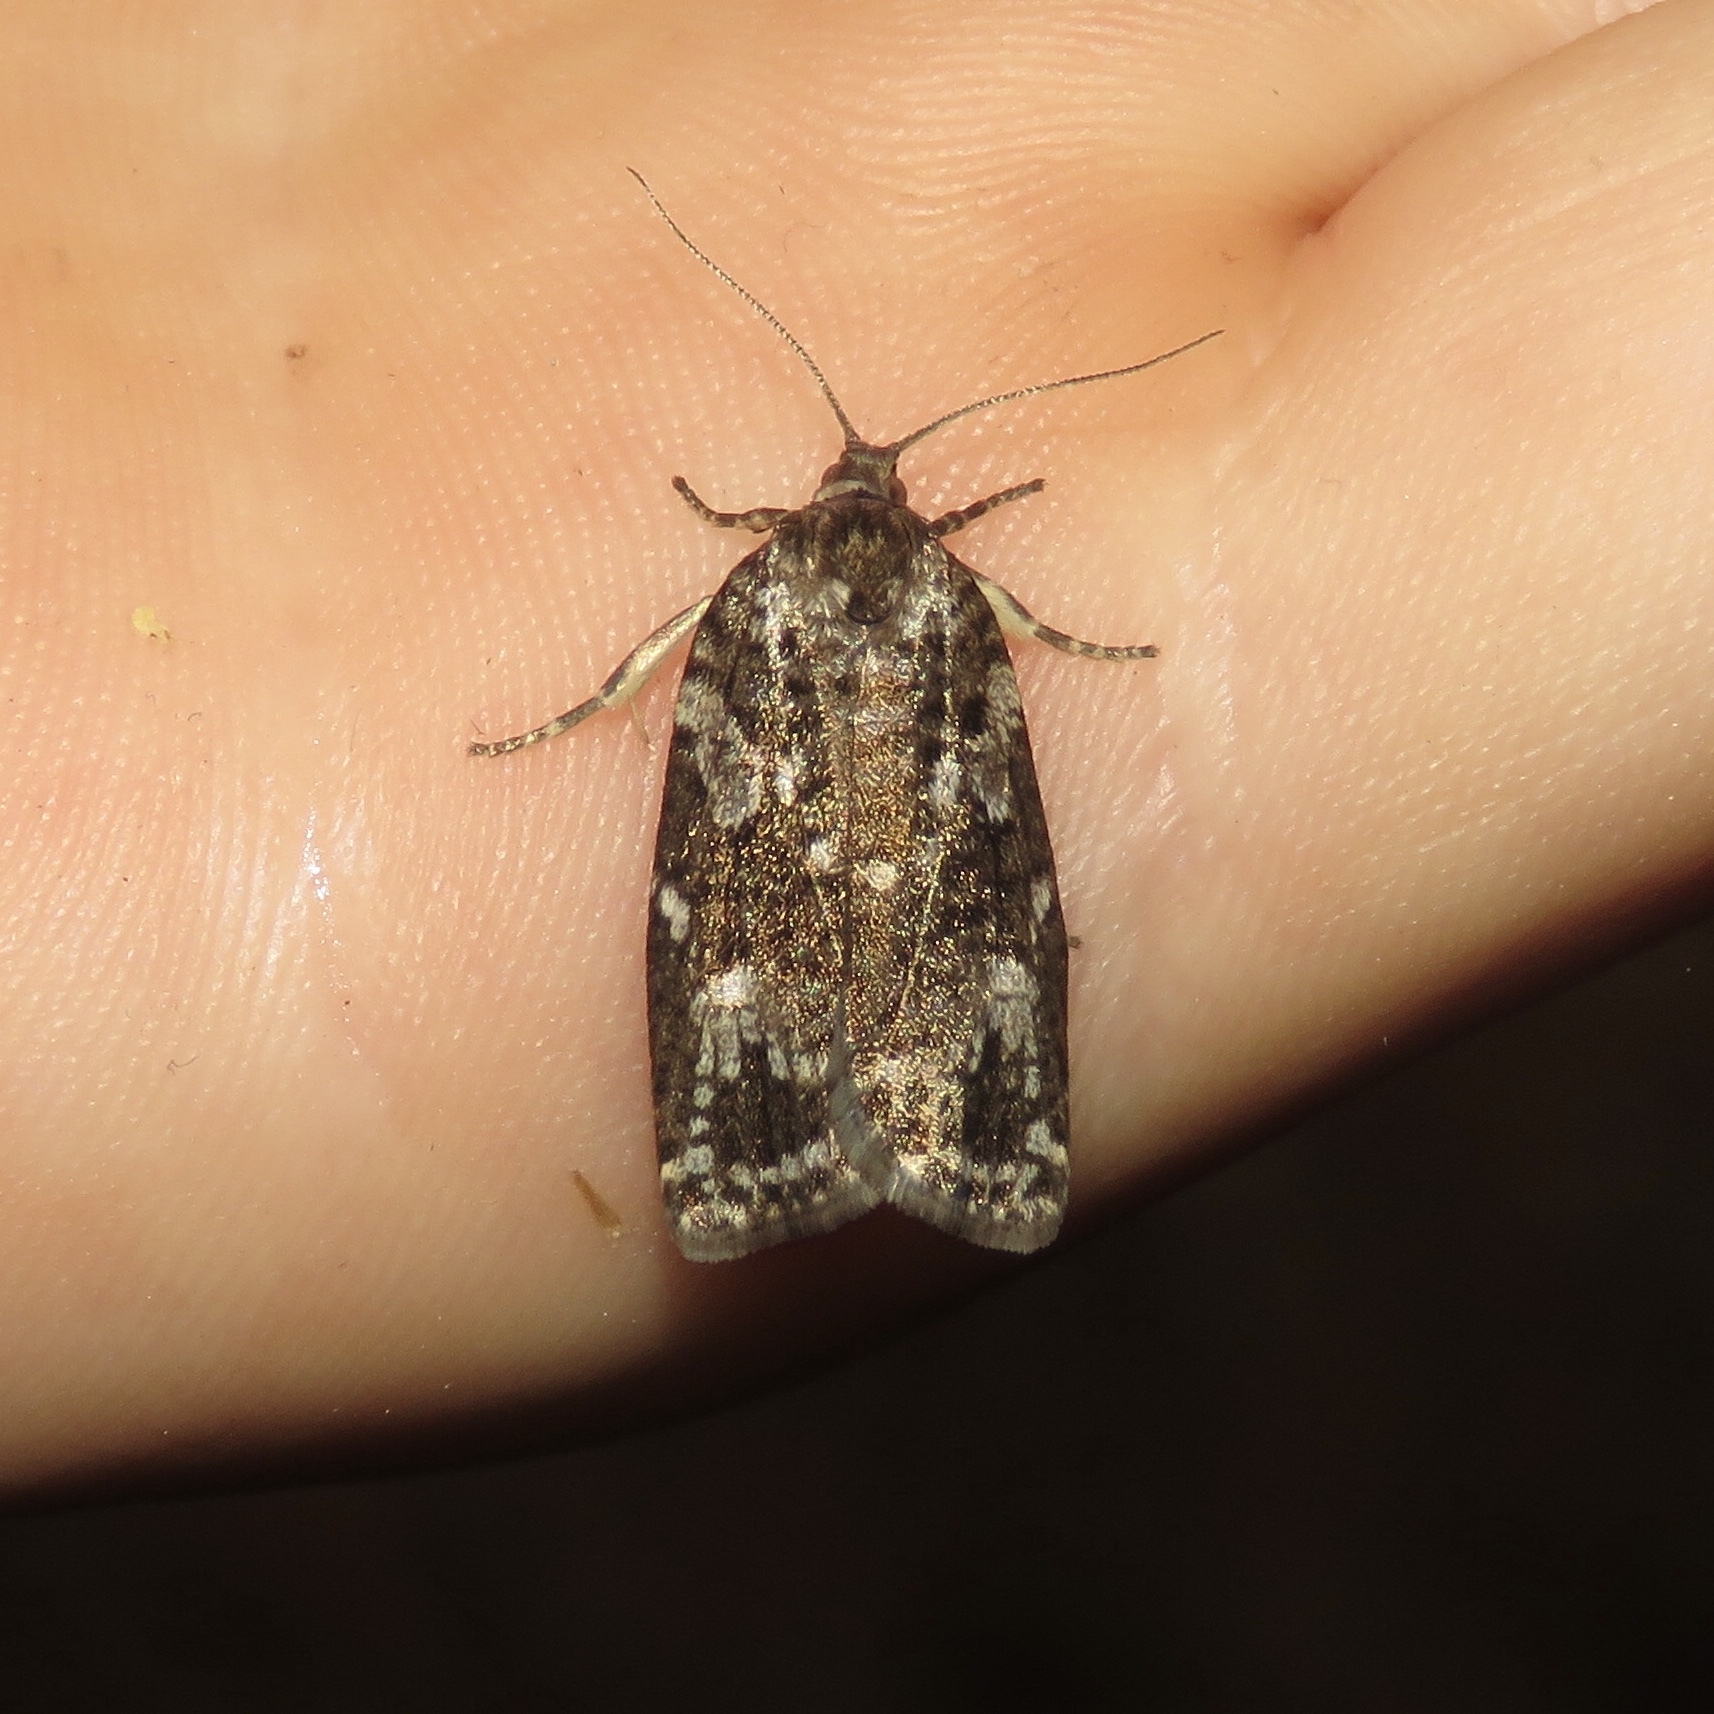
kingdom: Animalia
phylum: Arthropoda
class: Insecta
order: Lepidoptera
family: Tortricidae
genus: Choristoneura
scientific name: Choristoneura fumiferana
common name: Spruce budworm
